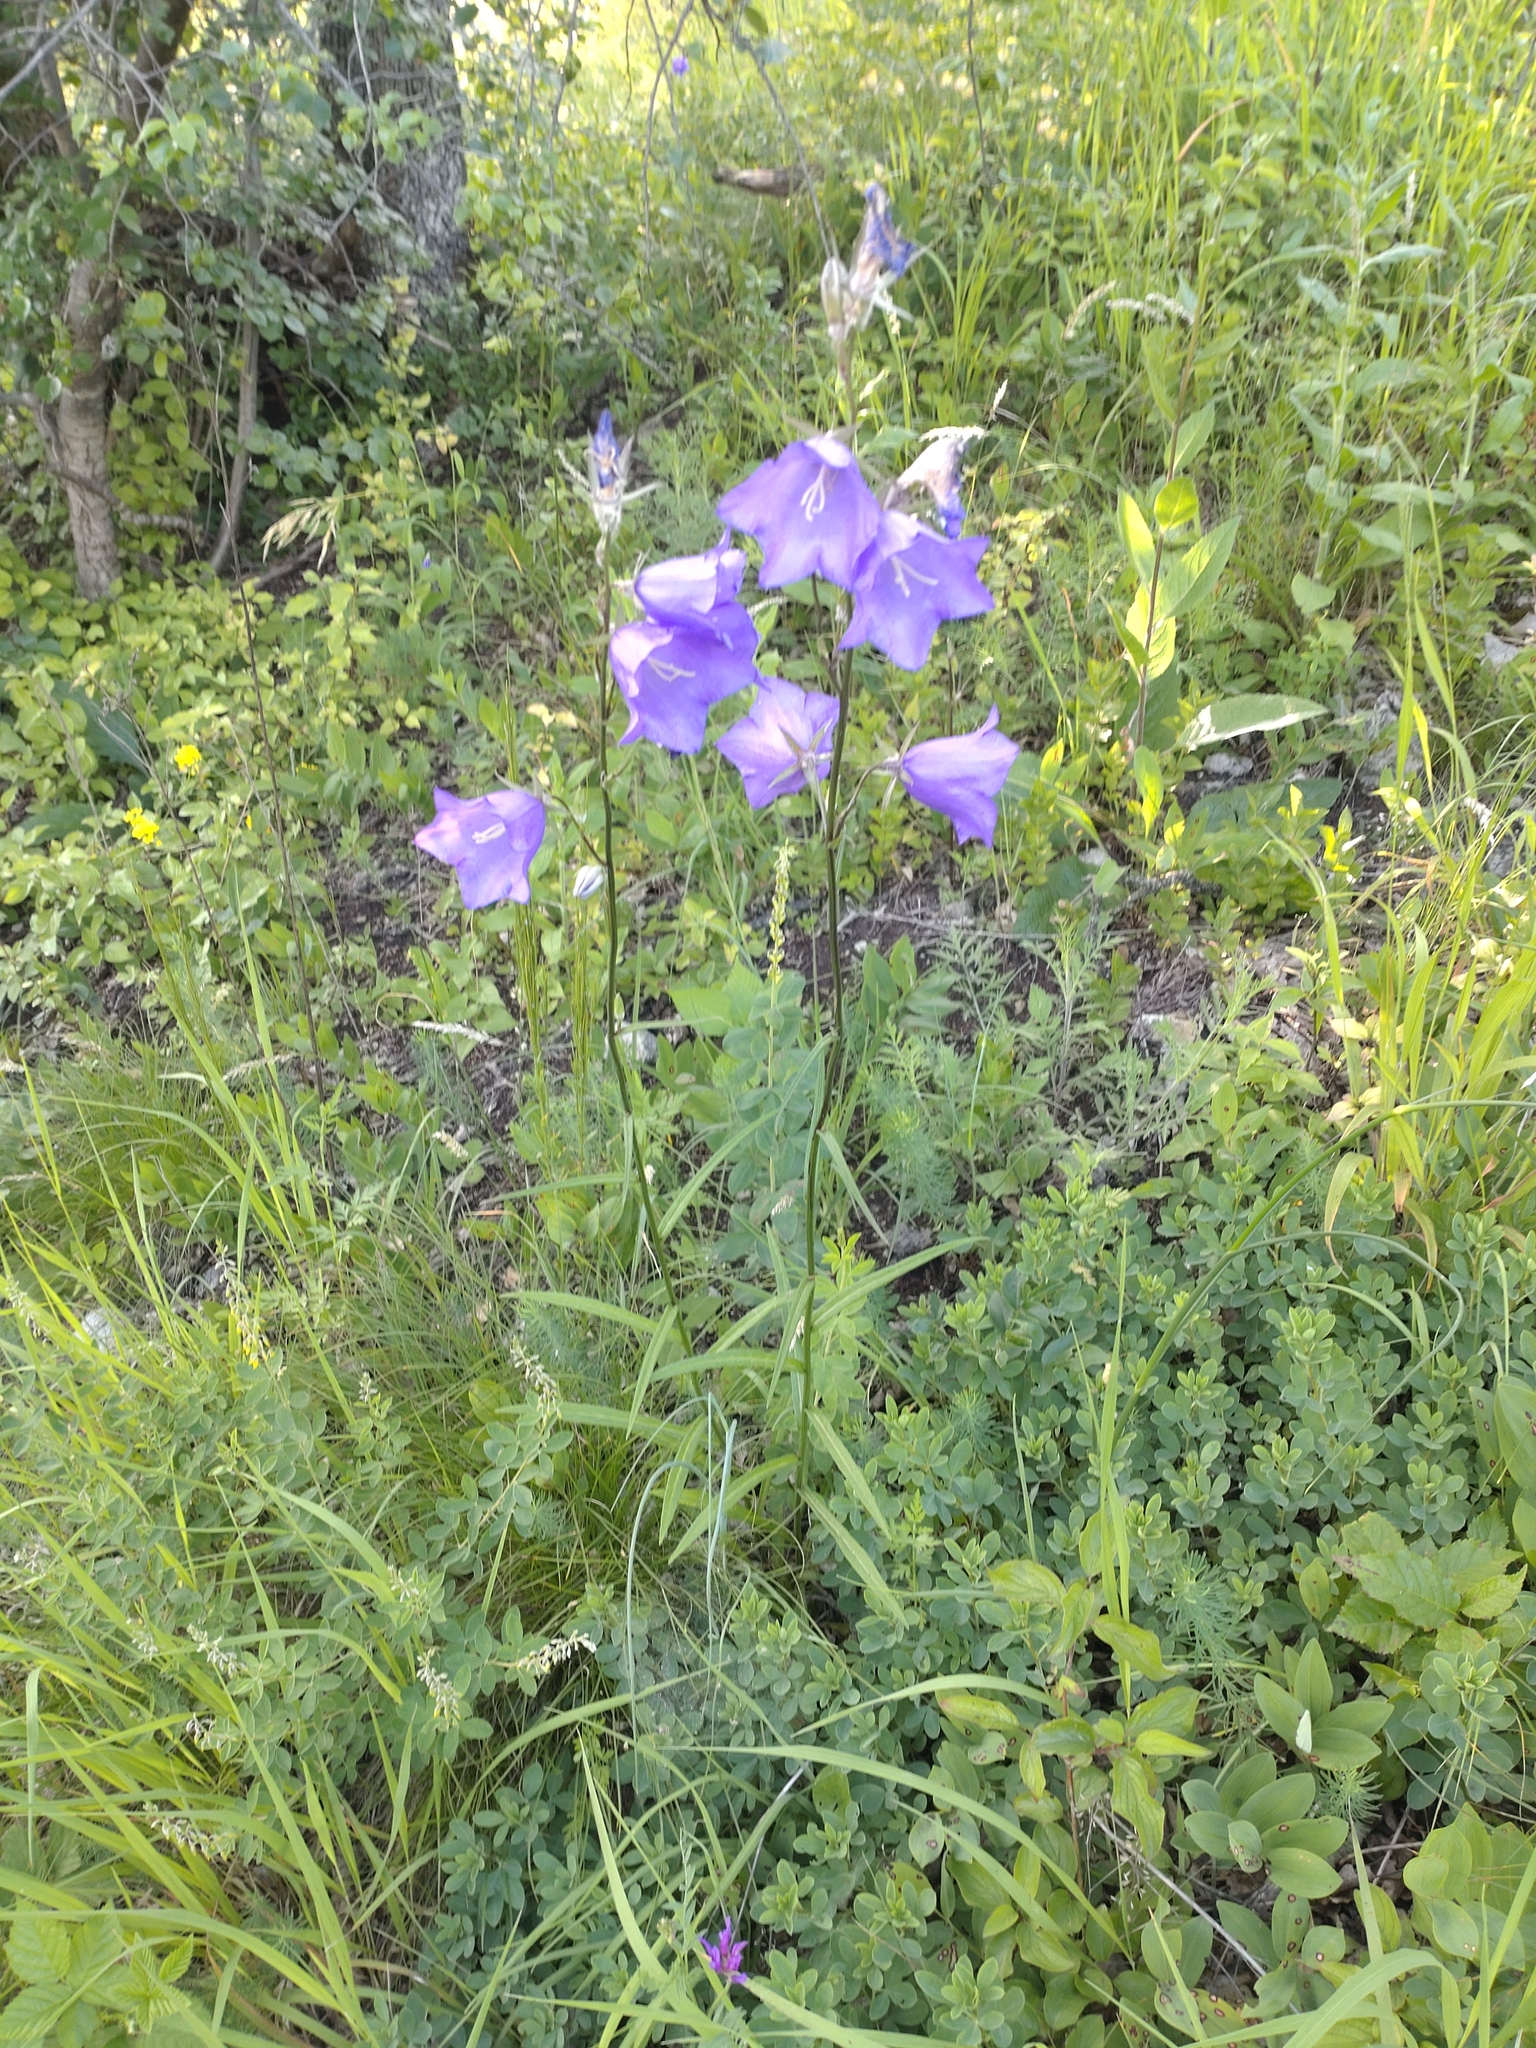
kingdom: Plantae
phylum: Tracheophyta
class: Magnoliopsida
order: Asterales
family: Campanulaceae
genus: Campanula
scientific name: Campanula persicifolia
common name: Peach-leaved bellflower
